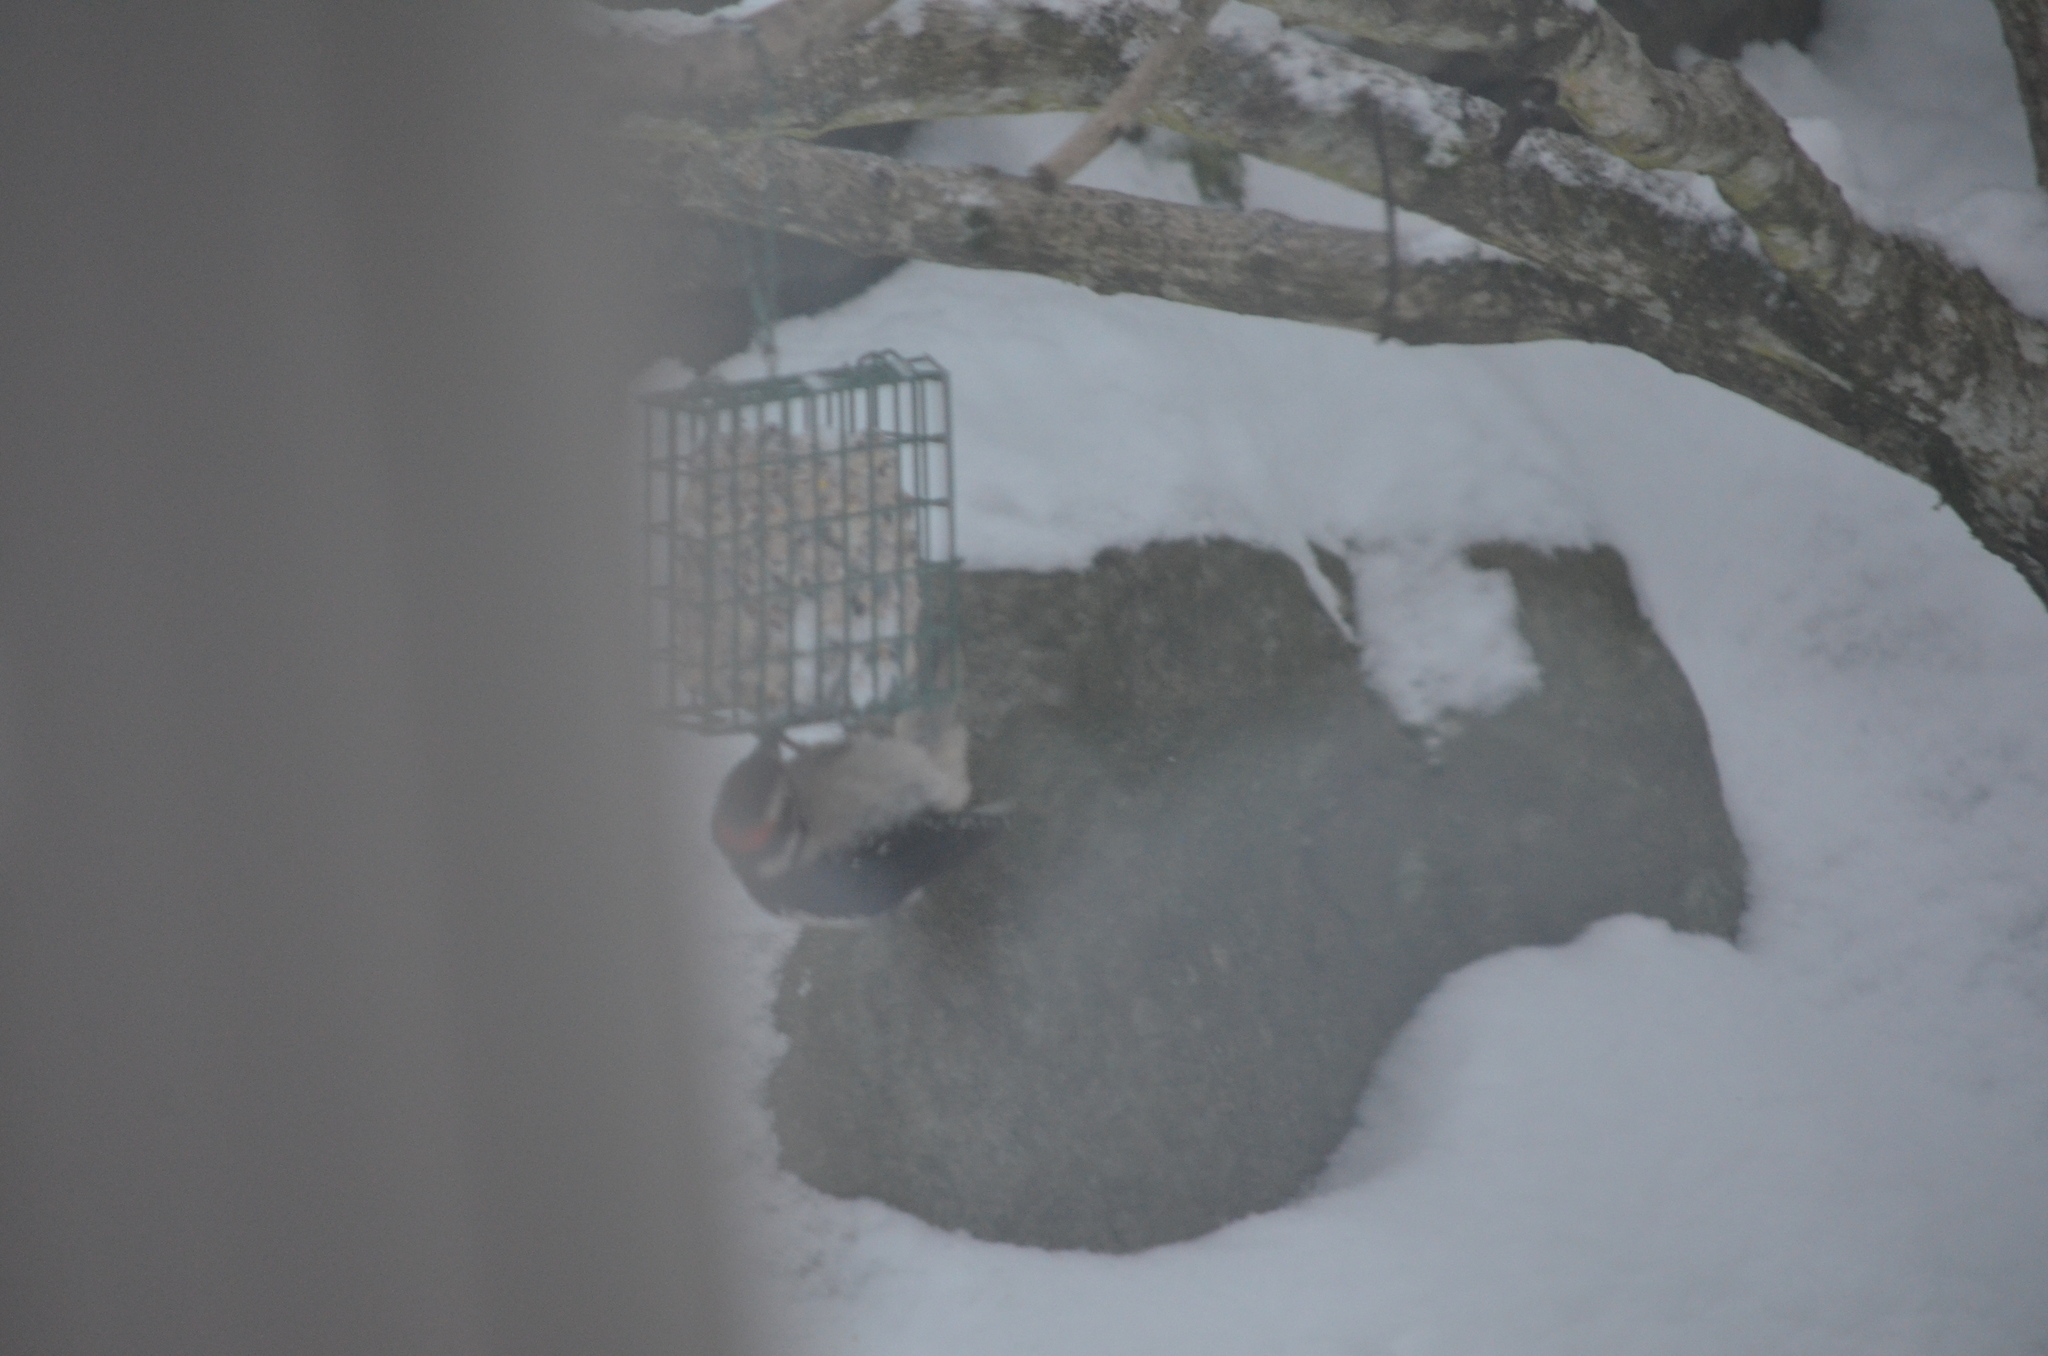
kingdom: Animalia
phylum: Chordata
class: Aves
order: Piciformes
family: Picidae
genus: Leuconotopicus
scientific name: Leuconotopicus villosus
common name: Hairy woodpecker
